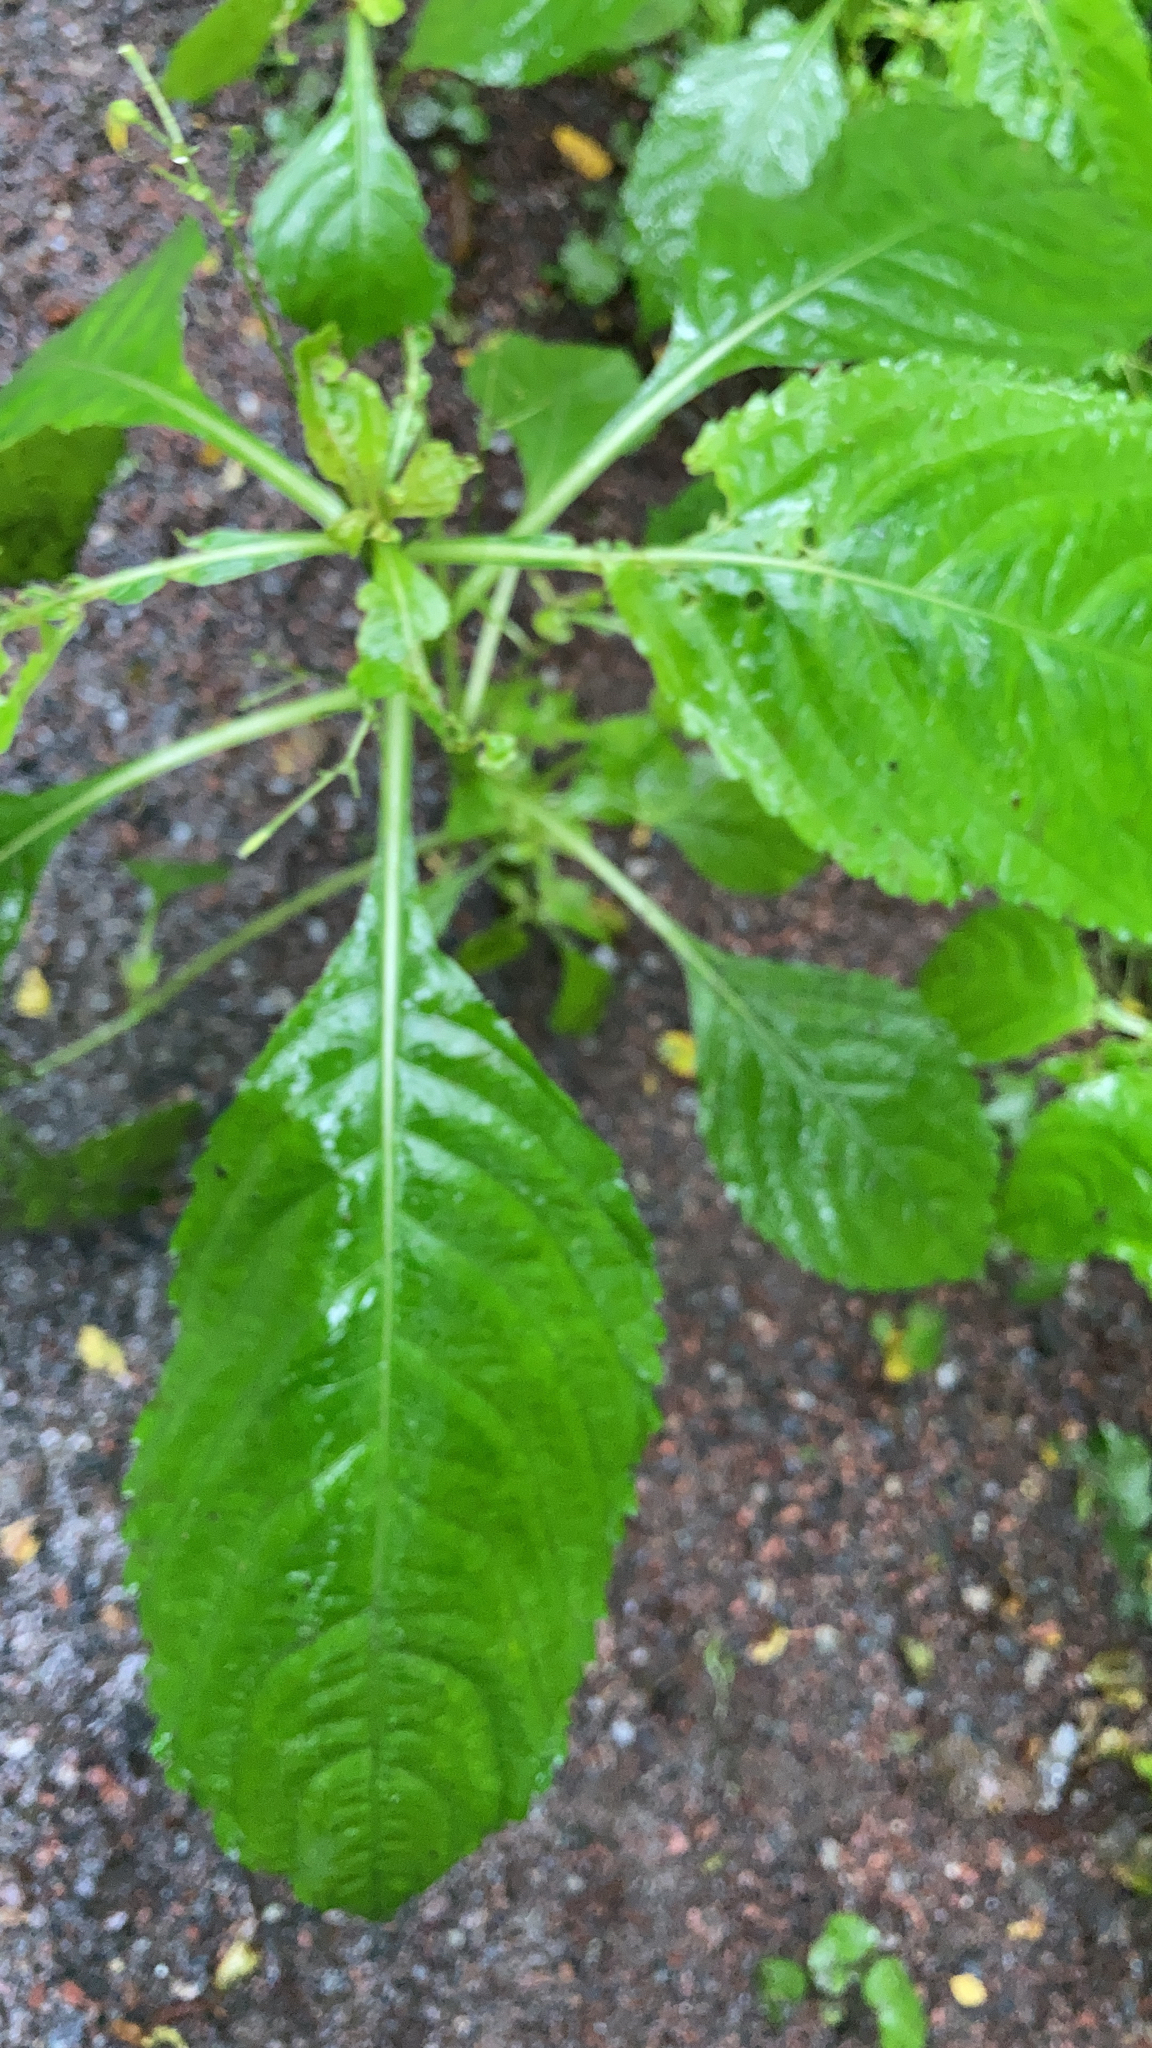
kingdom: Plantae
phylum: Tracheophyta
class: Magnoliopsida
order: Ericales
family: Balsaminaceae
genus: Impatiens
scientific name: Impatiens parviflora
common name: Small balsam
